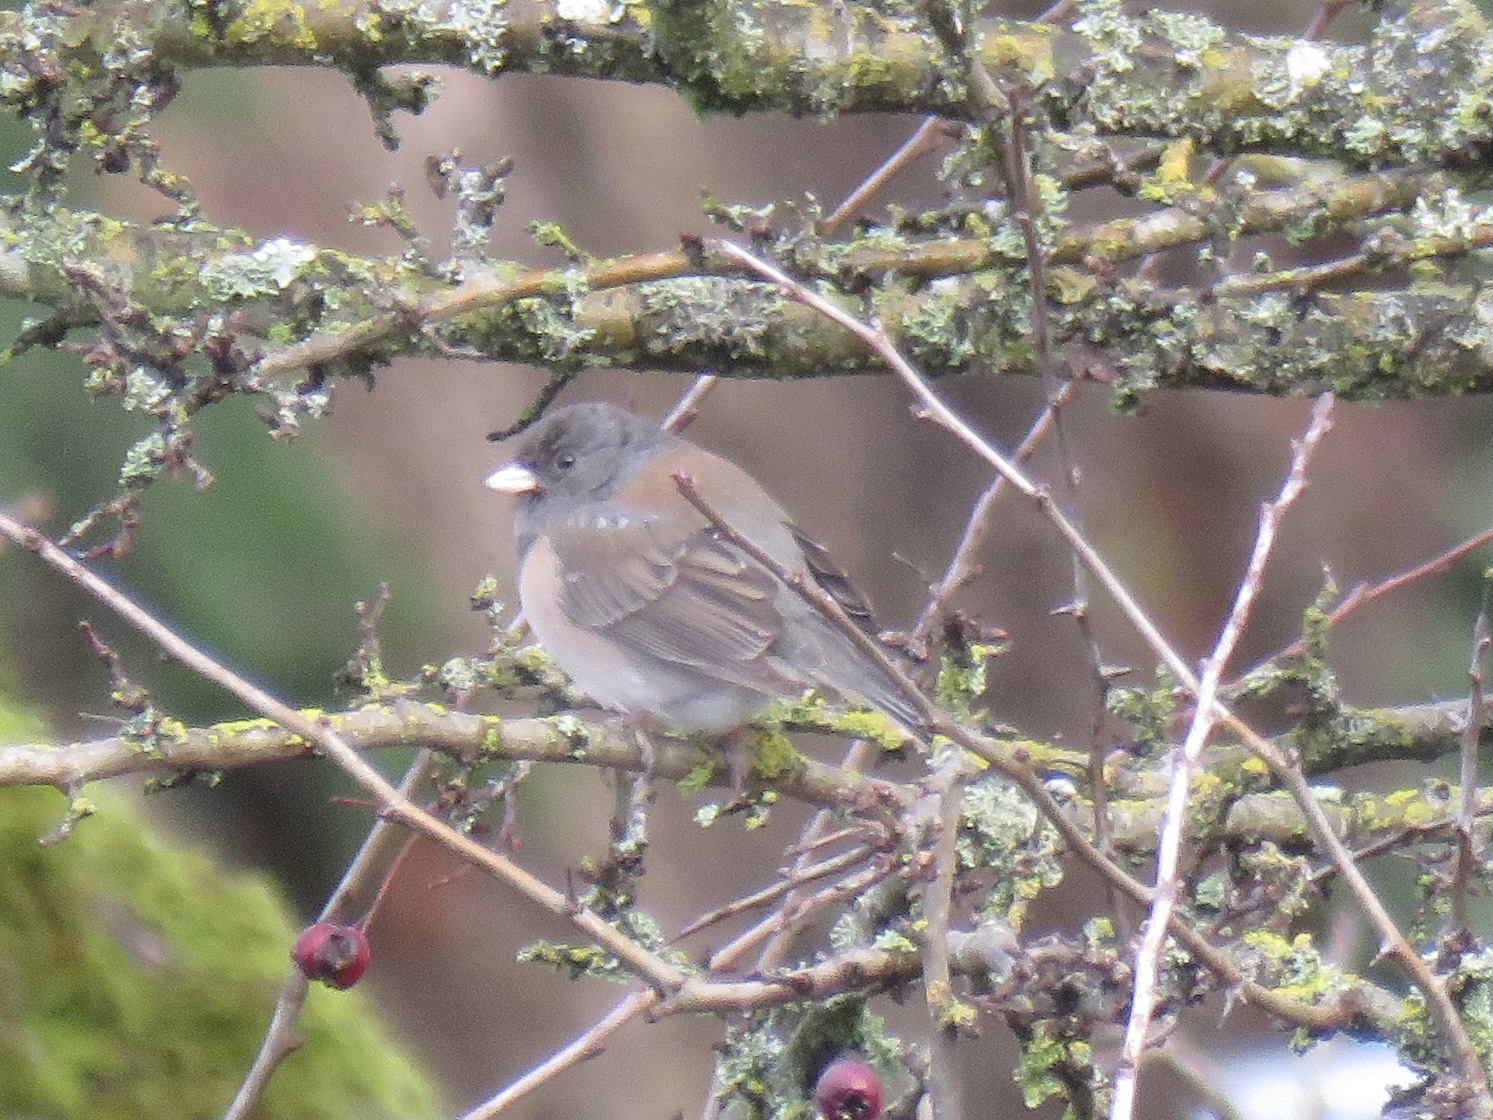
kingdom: Animalia
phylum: Chordata
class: Aves
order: Passeriformes
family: Passerellidae
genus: Junco
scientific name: Junco hyemalis
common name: Dark-eyed junco
